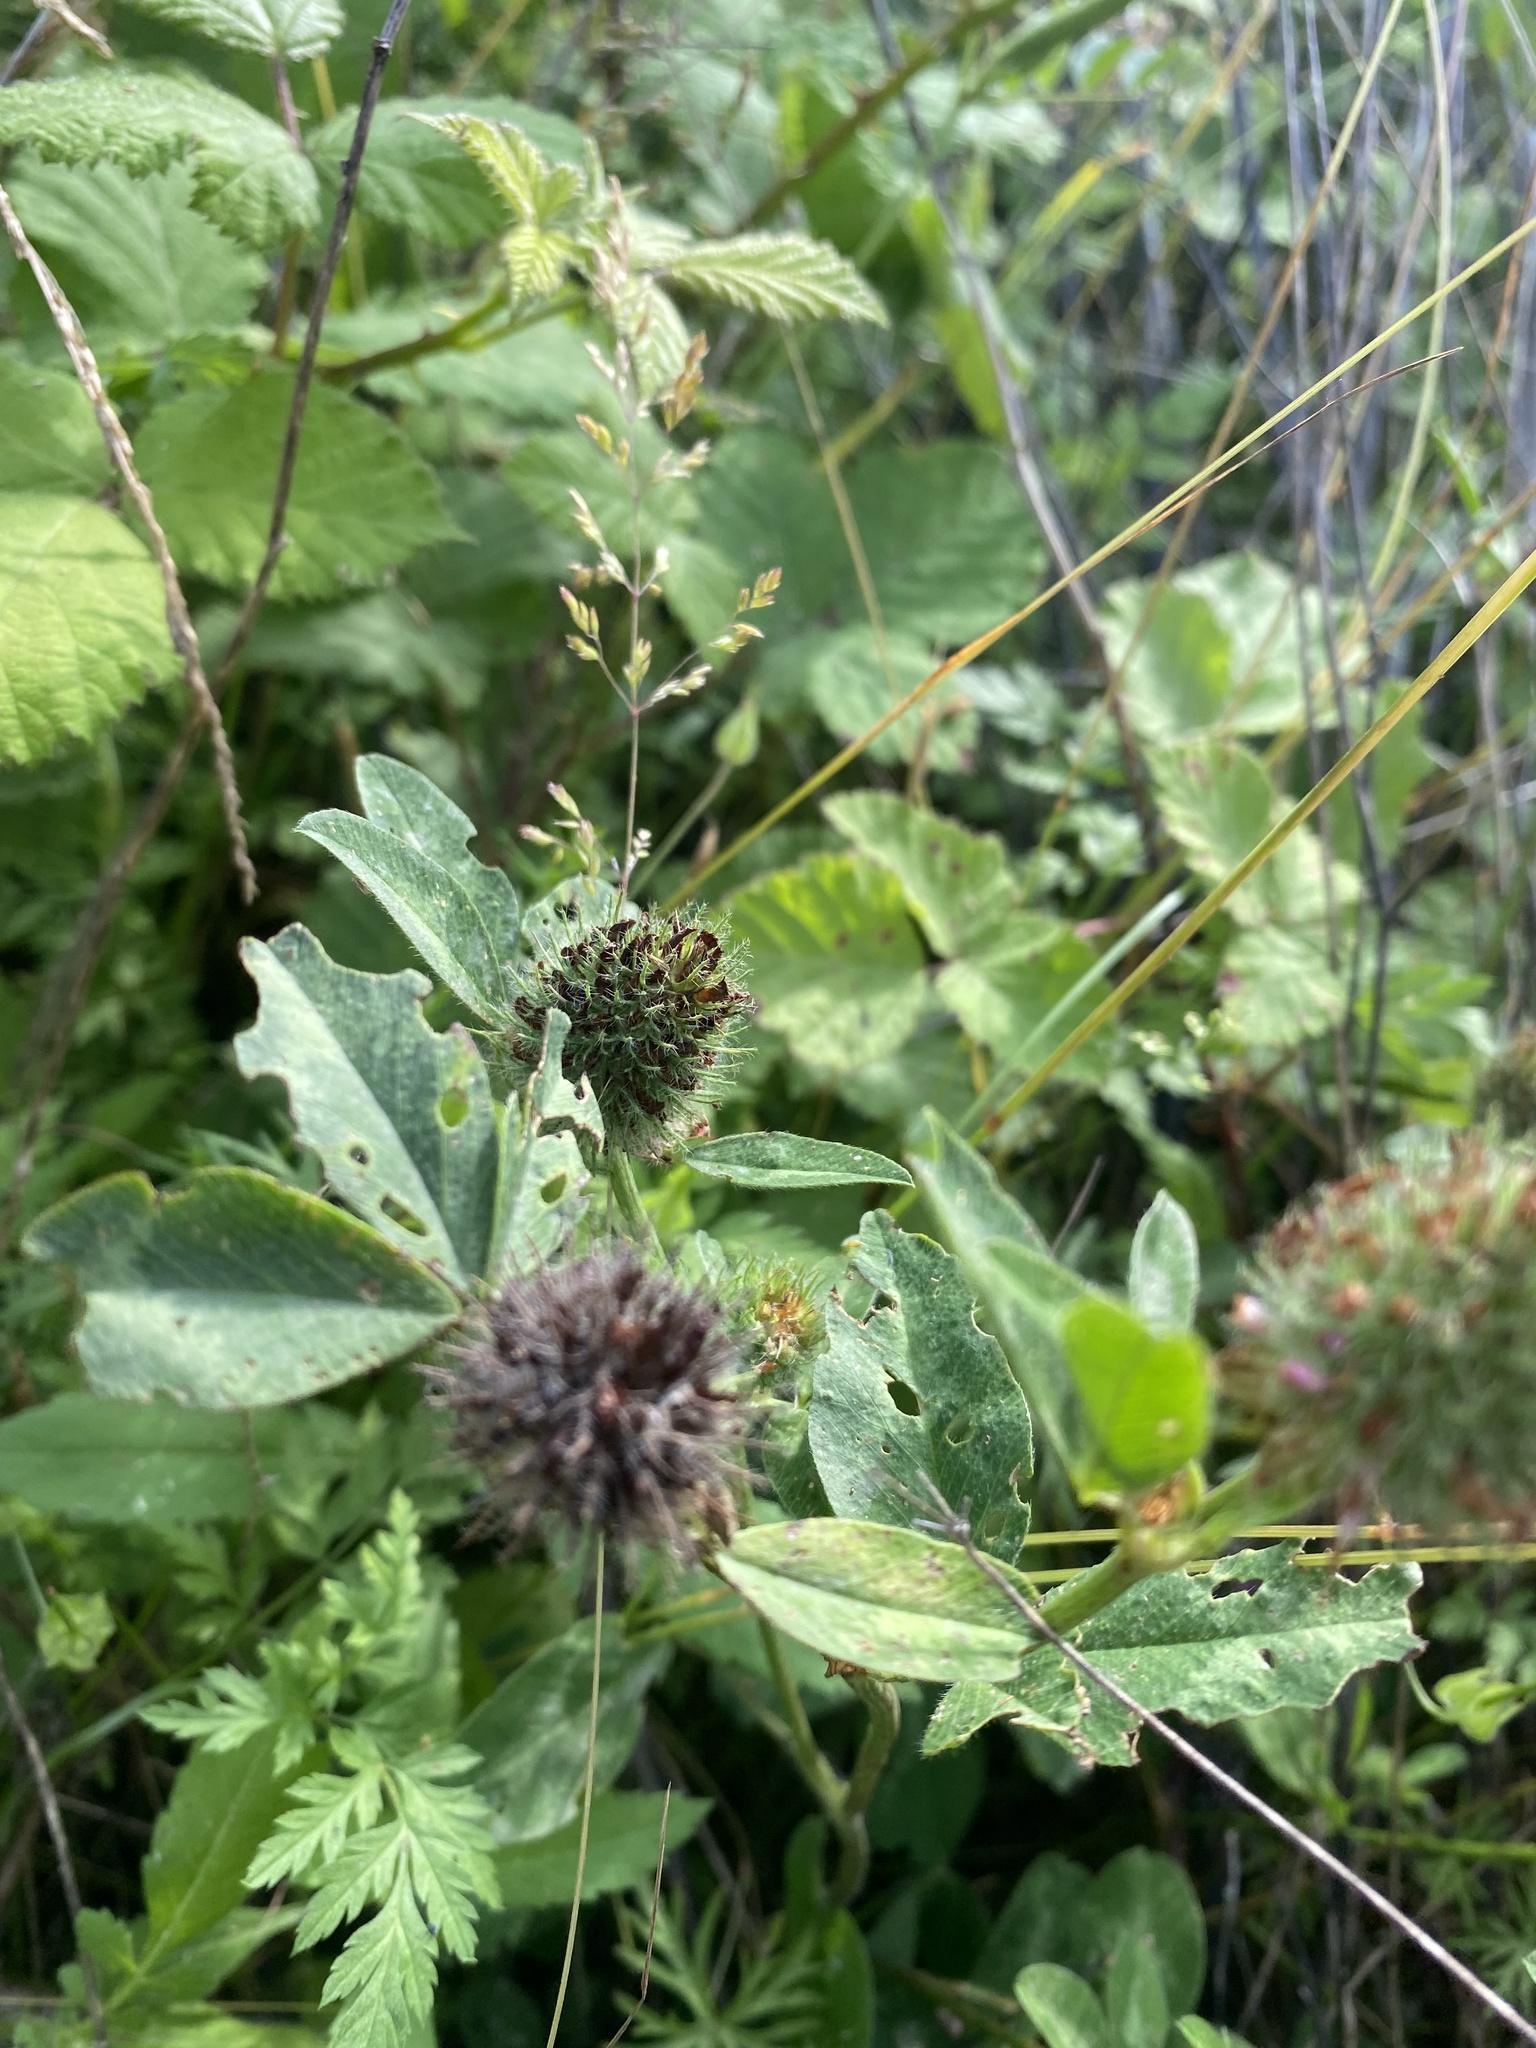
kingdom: Plantae
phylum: Tracheophyta
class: Magnoliopsida
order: Fabales
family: Fabaceae
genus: Trifolium
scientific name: Trifolium pratense
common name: Red clover
